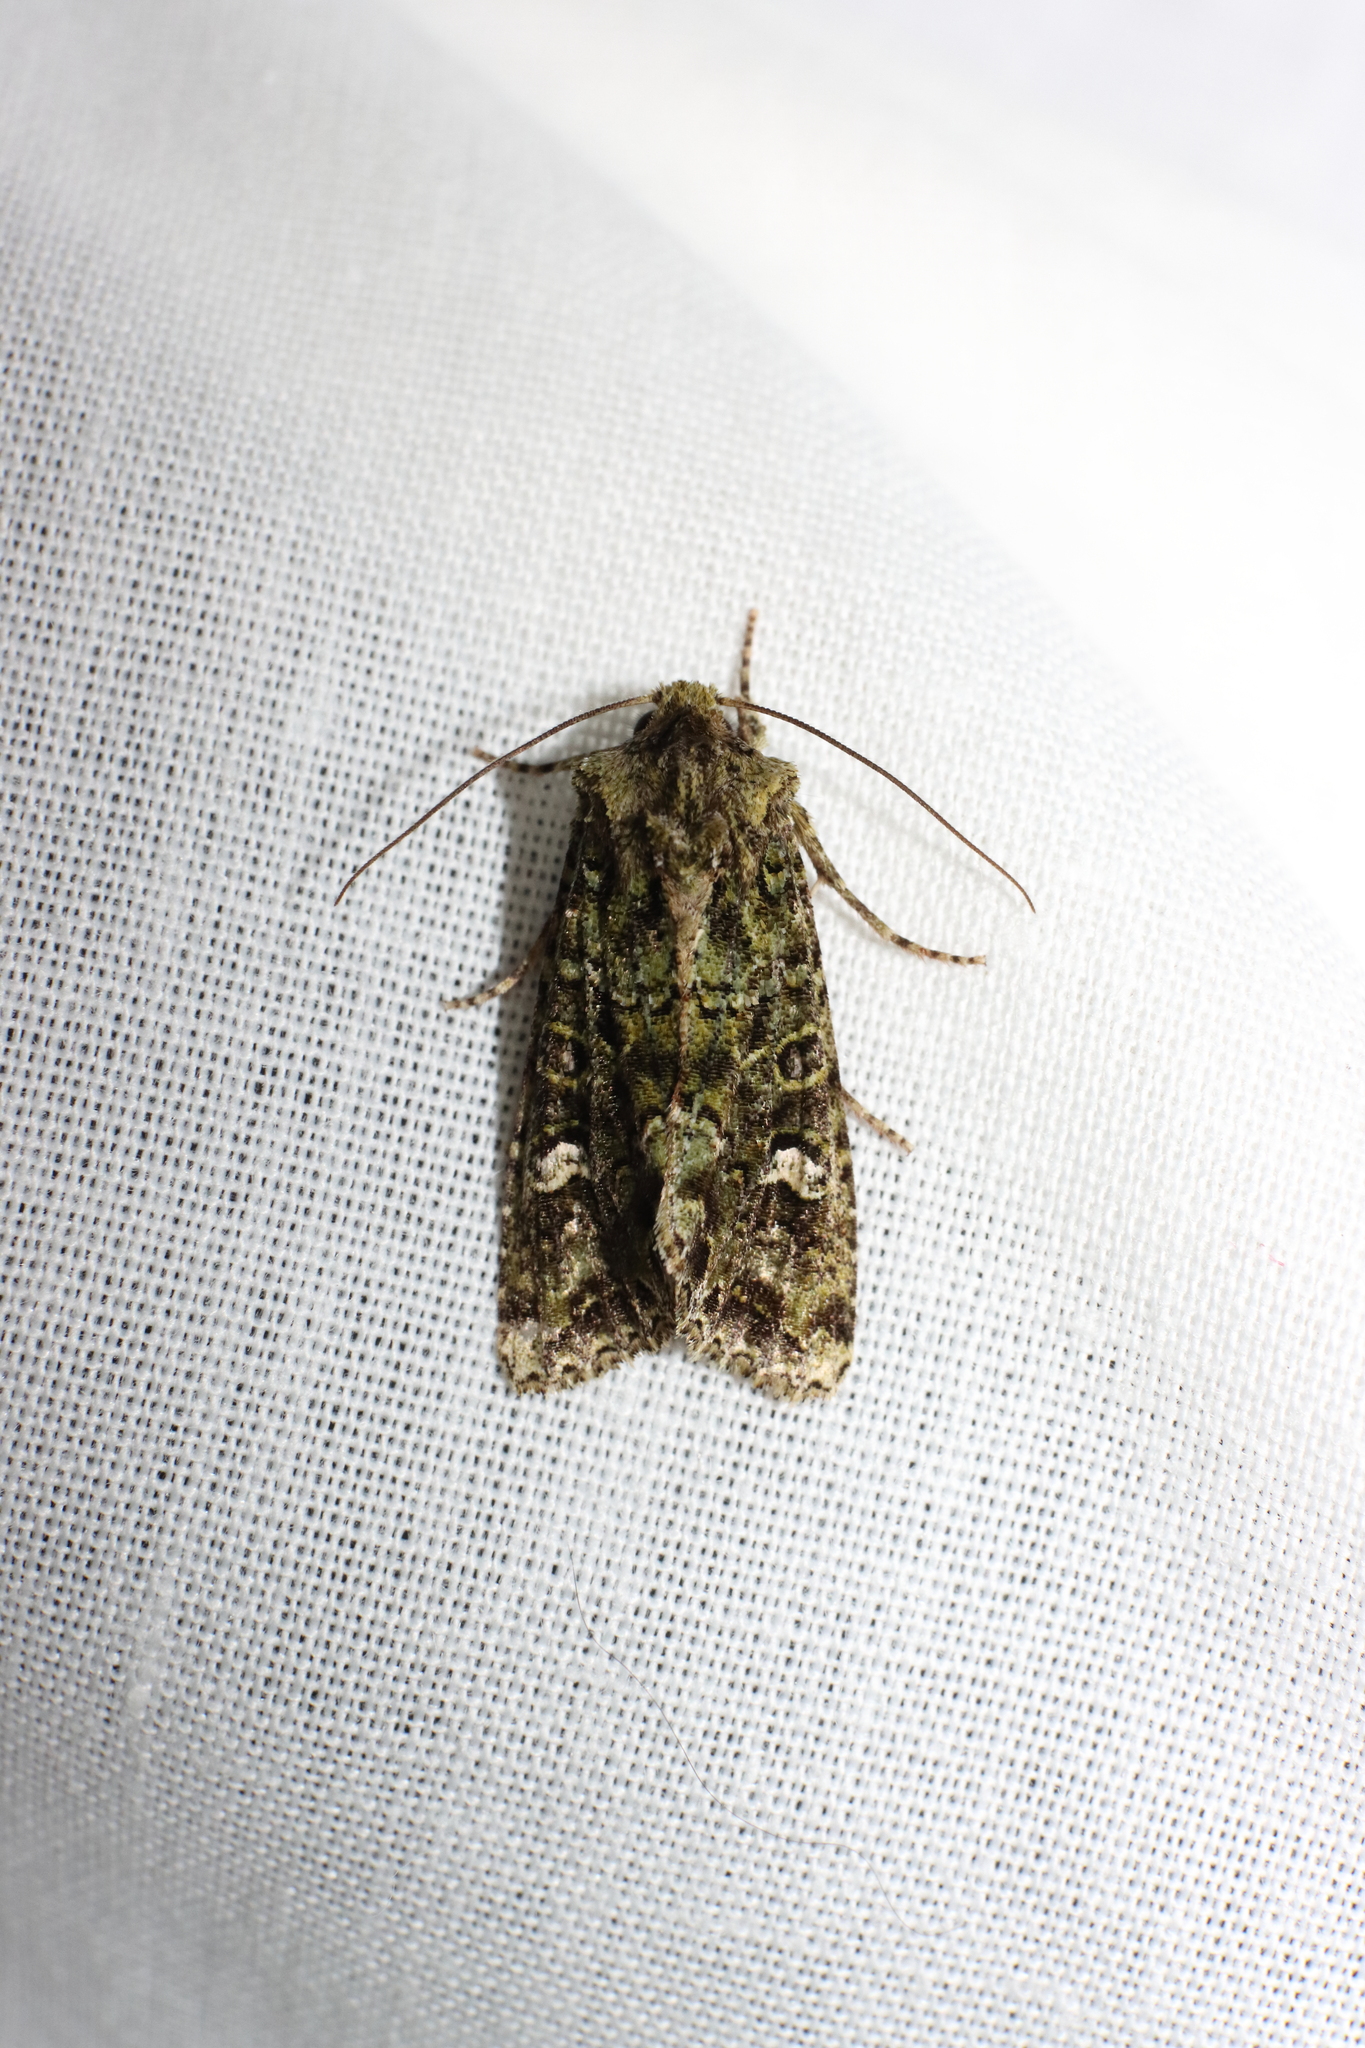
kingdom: Animalia
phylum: Arthropoda
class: Insecta
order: Lepidoptera
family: Noctuidae
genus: Ichneutica
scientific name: Ichneutica
